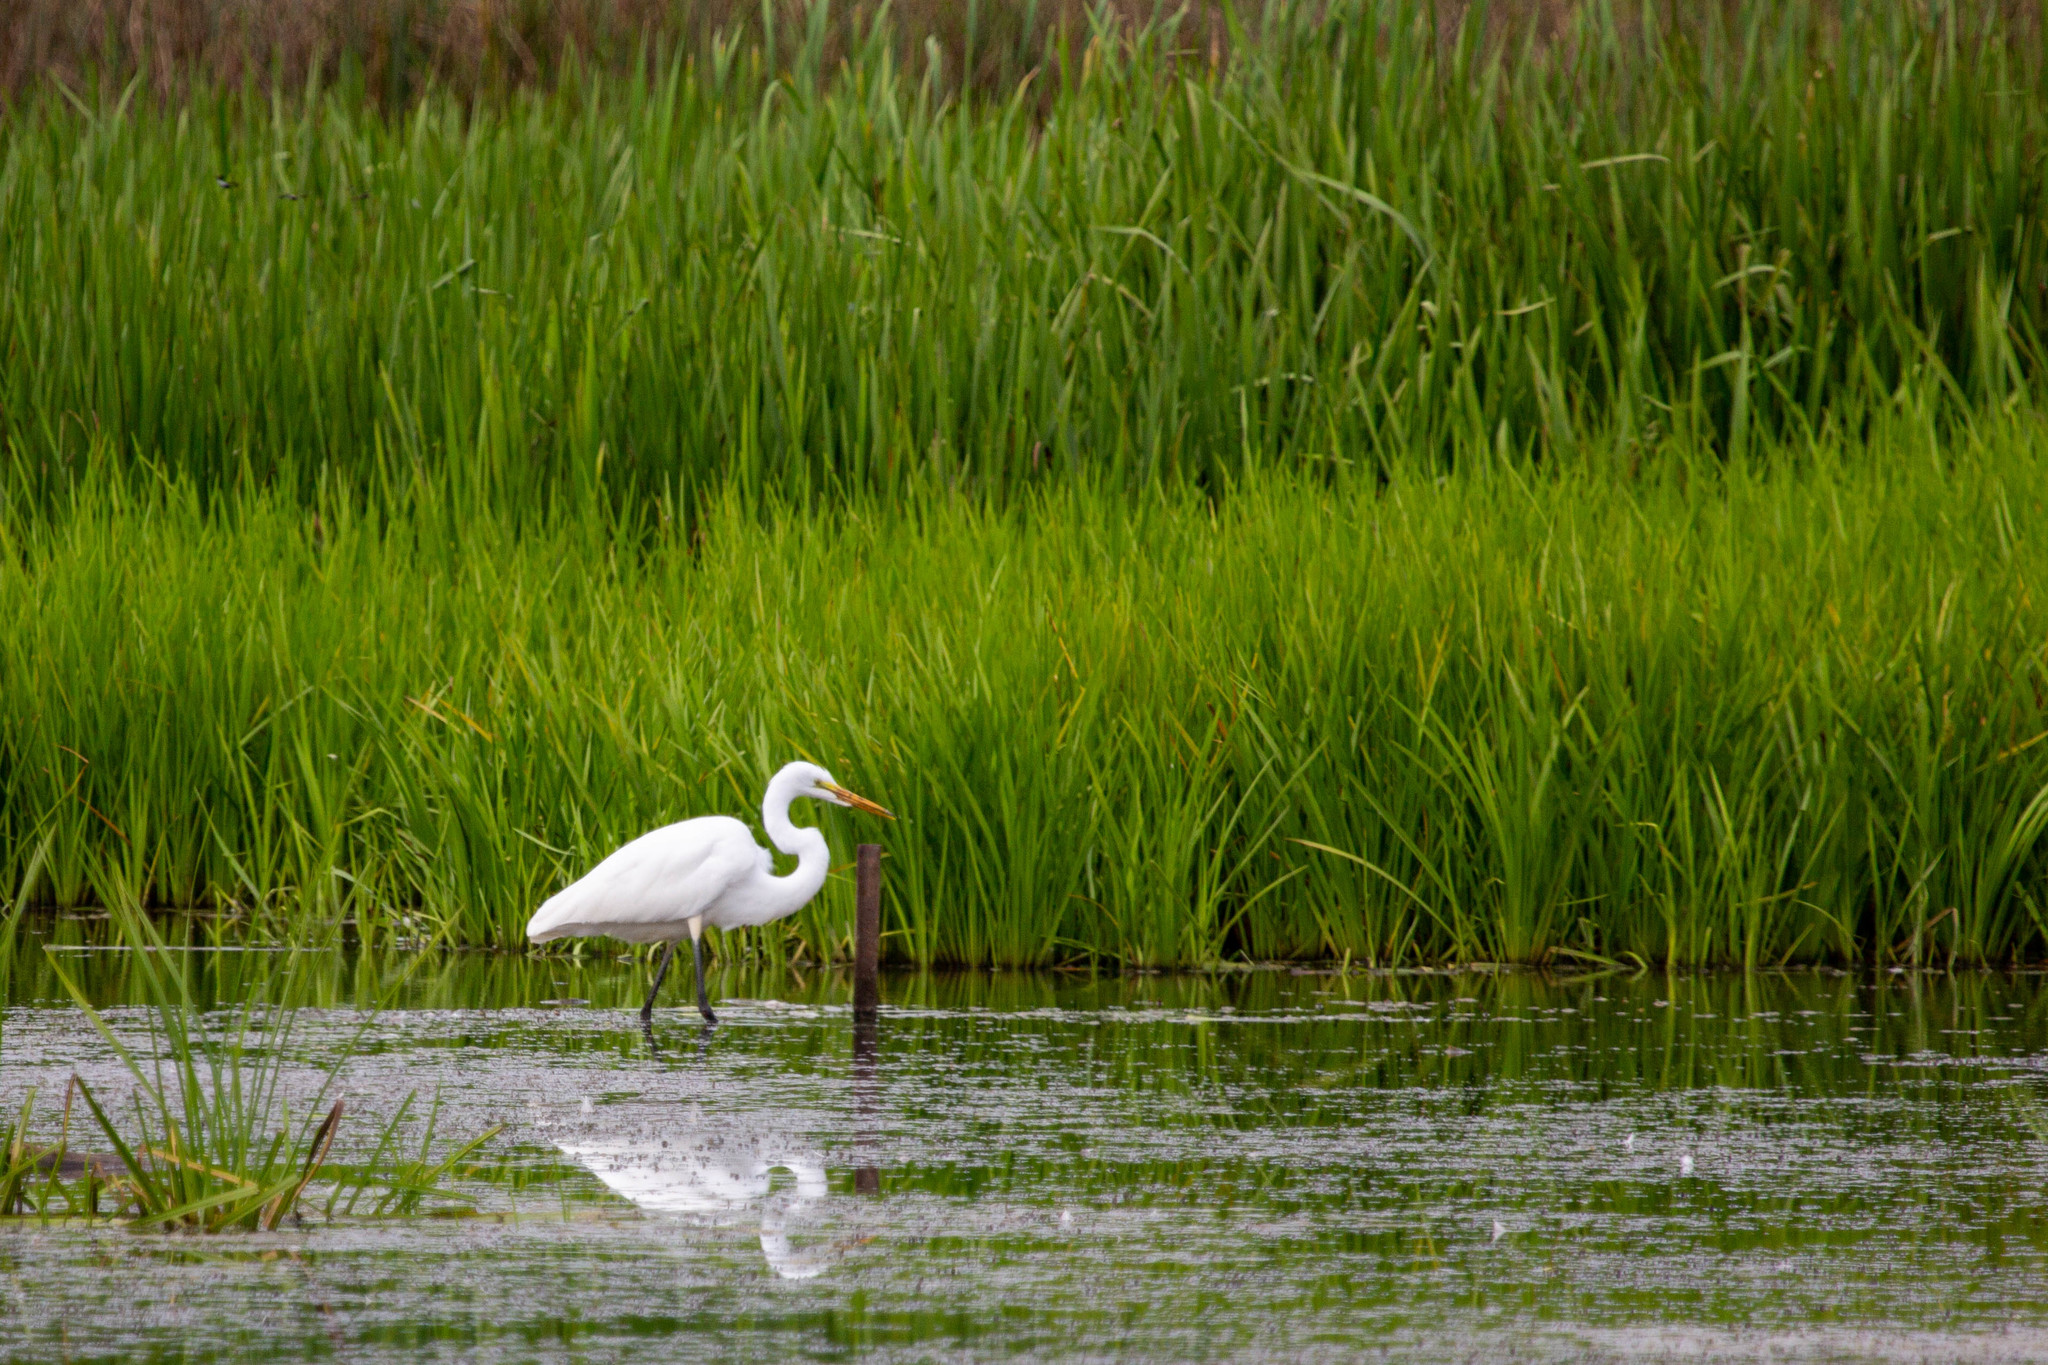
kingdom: Animalia
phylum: Chordata
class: Aves
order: Pelecaniformes
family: Ardeidae
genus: Ardea
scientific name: Ardea alba
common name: Great egret
